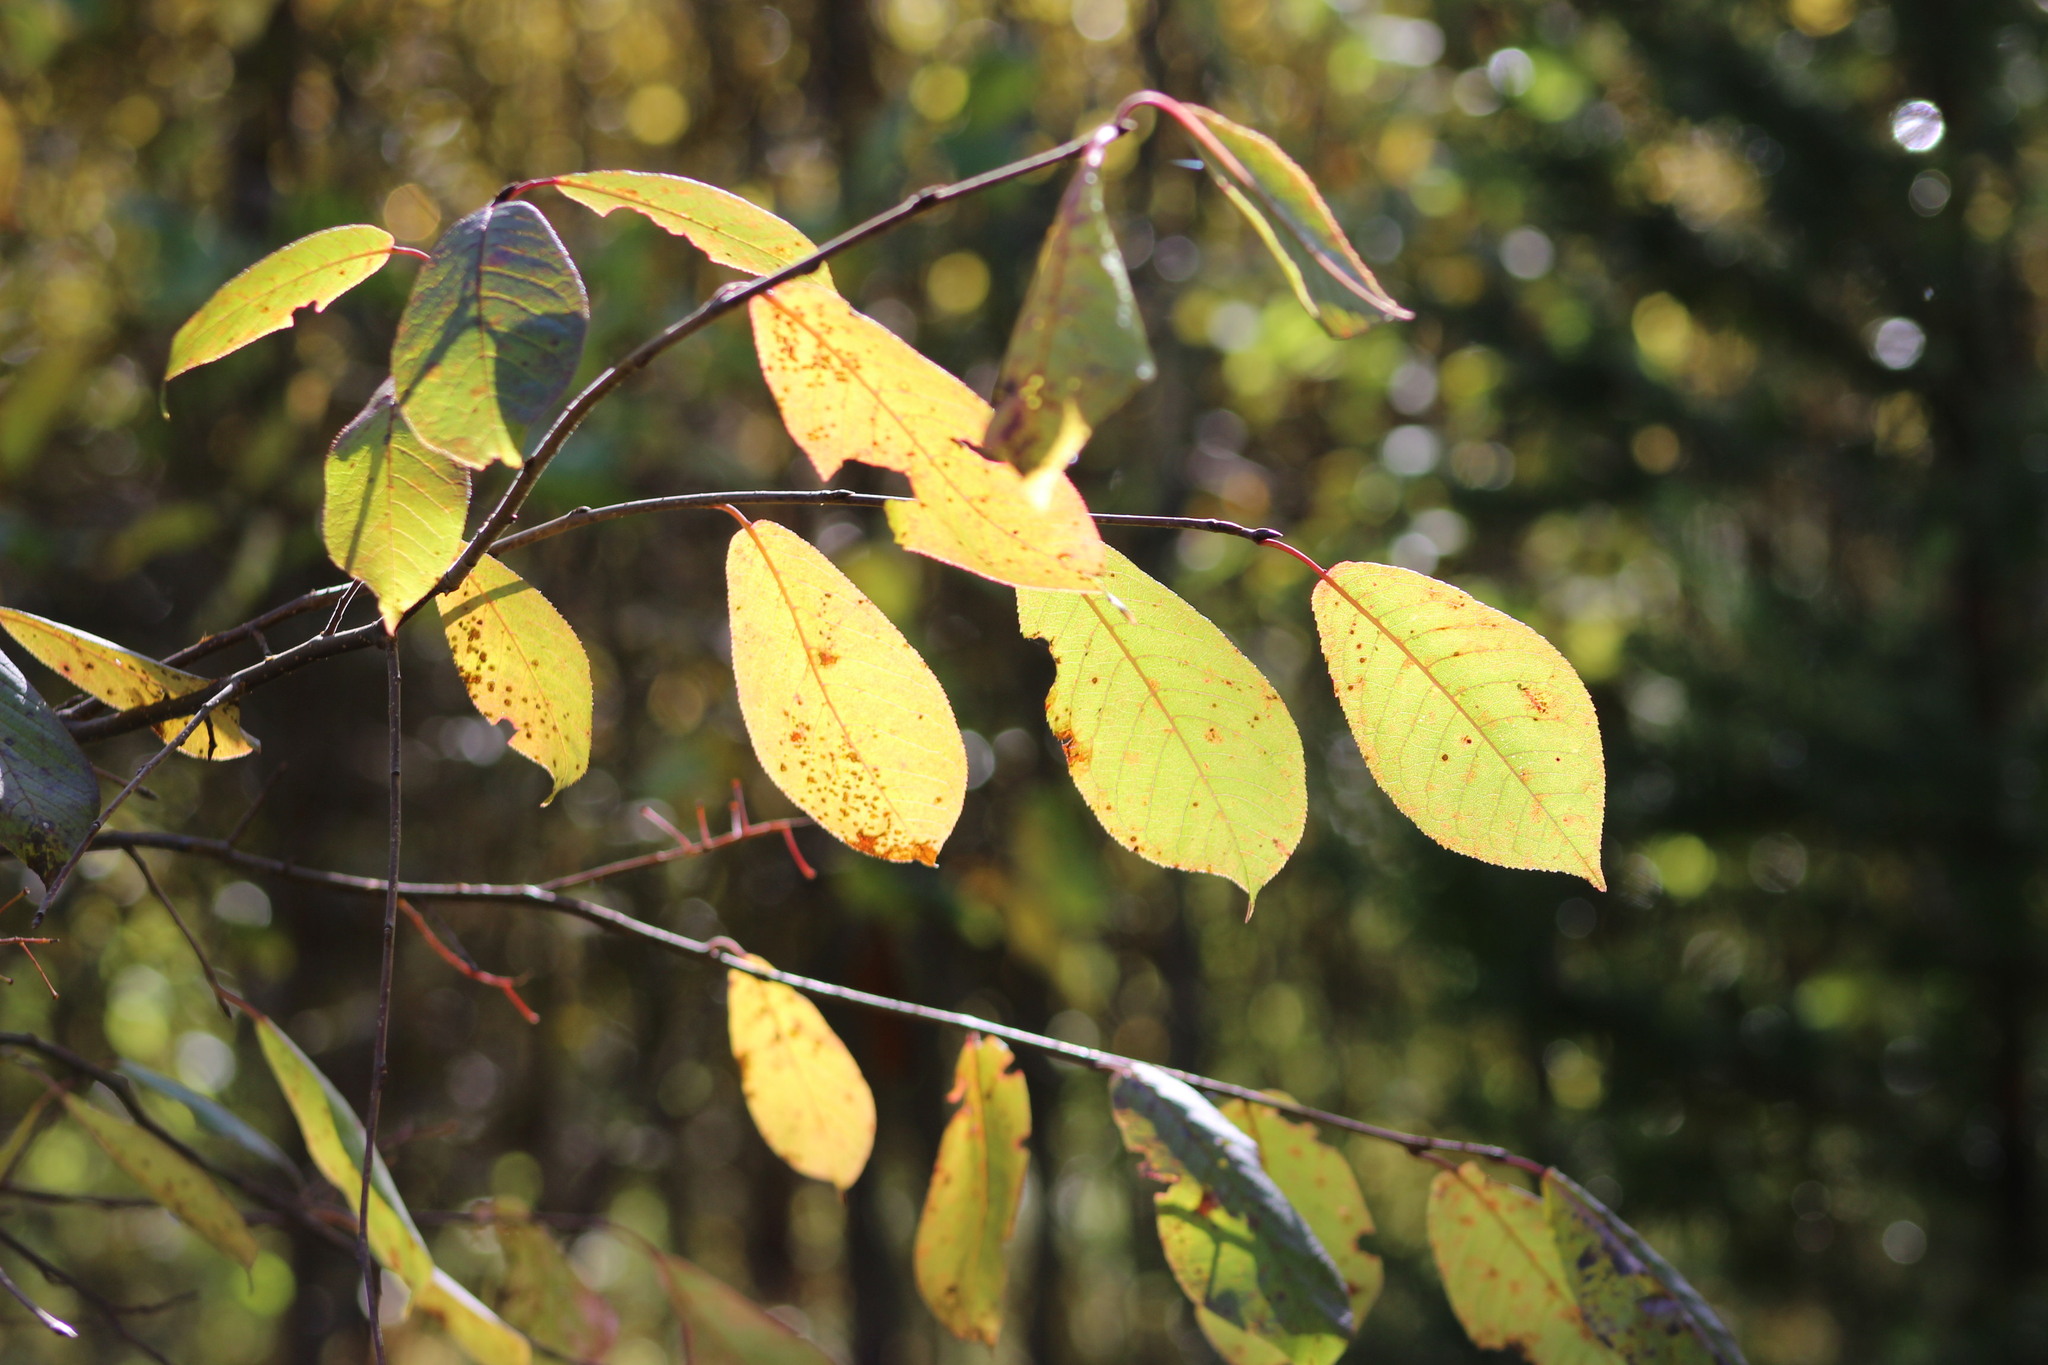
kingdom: Plantae
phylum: Tracheophyta
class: Magnoliopsida
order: Rosales
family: Rosaceae
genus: Prunus
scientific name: Prunus padus
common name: Bird cherry
